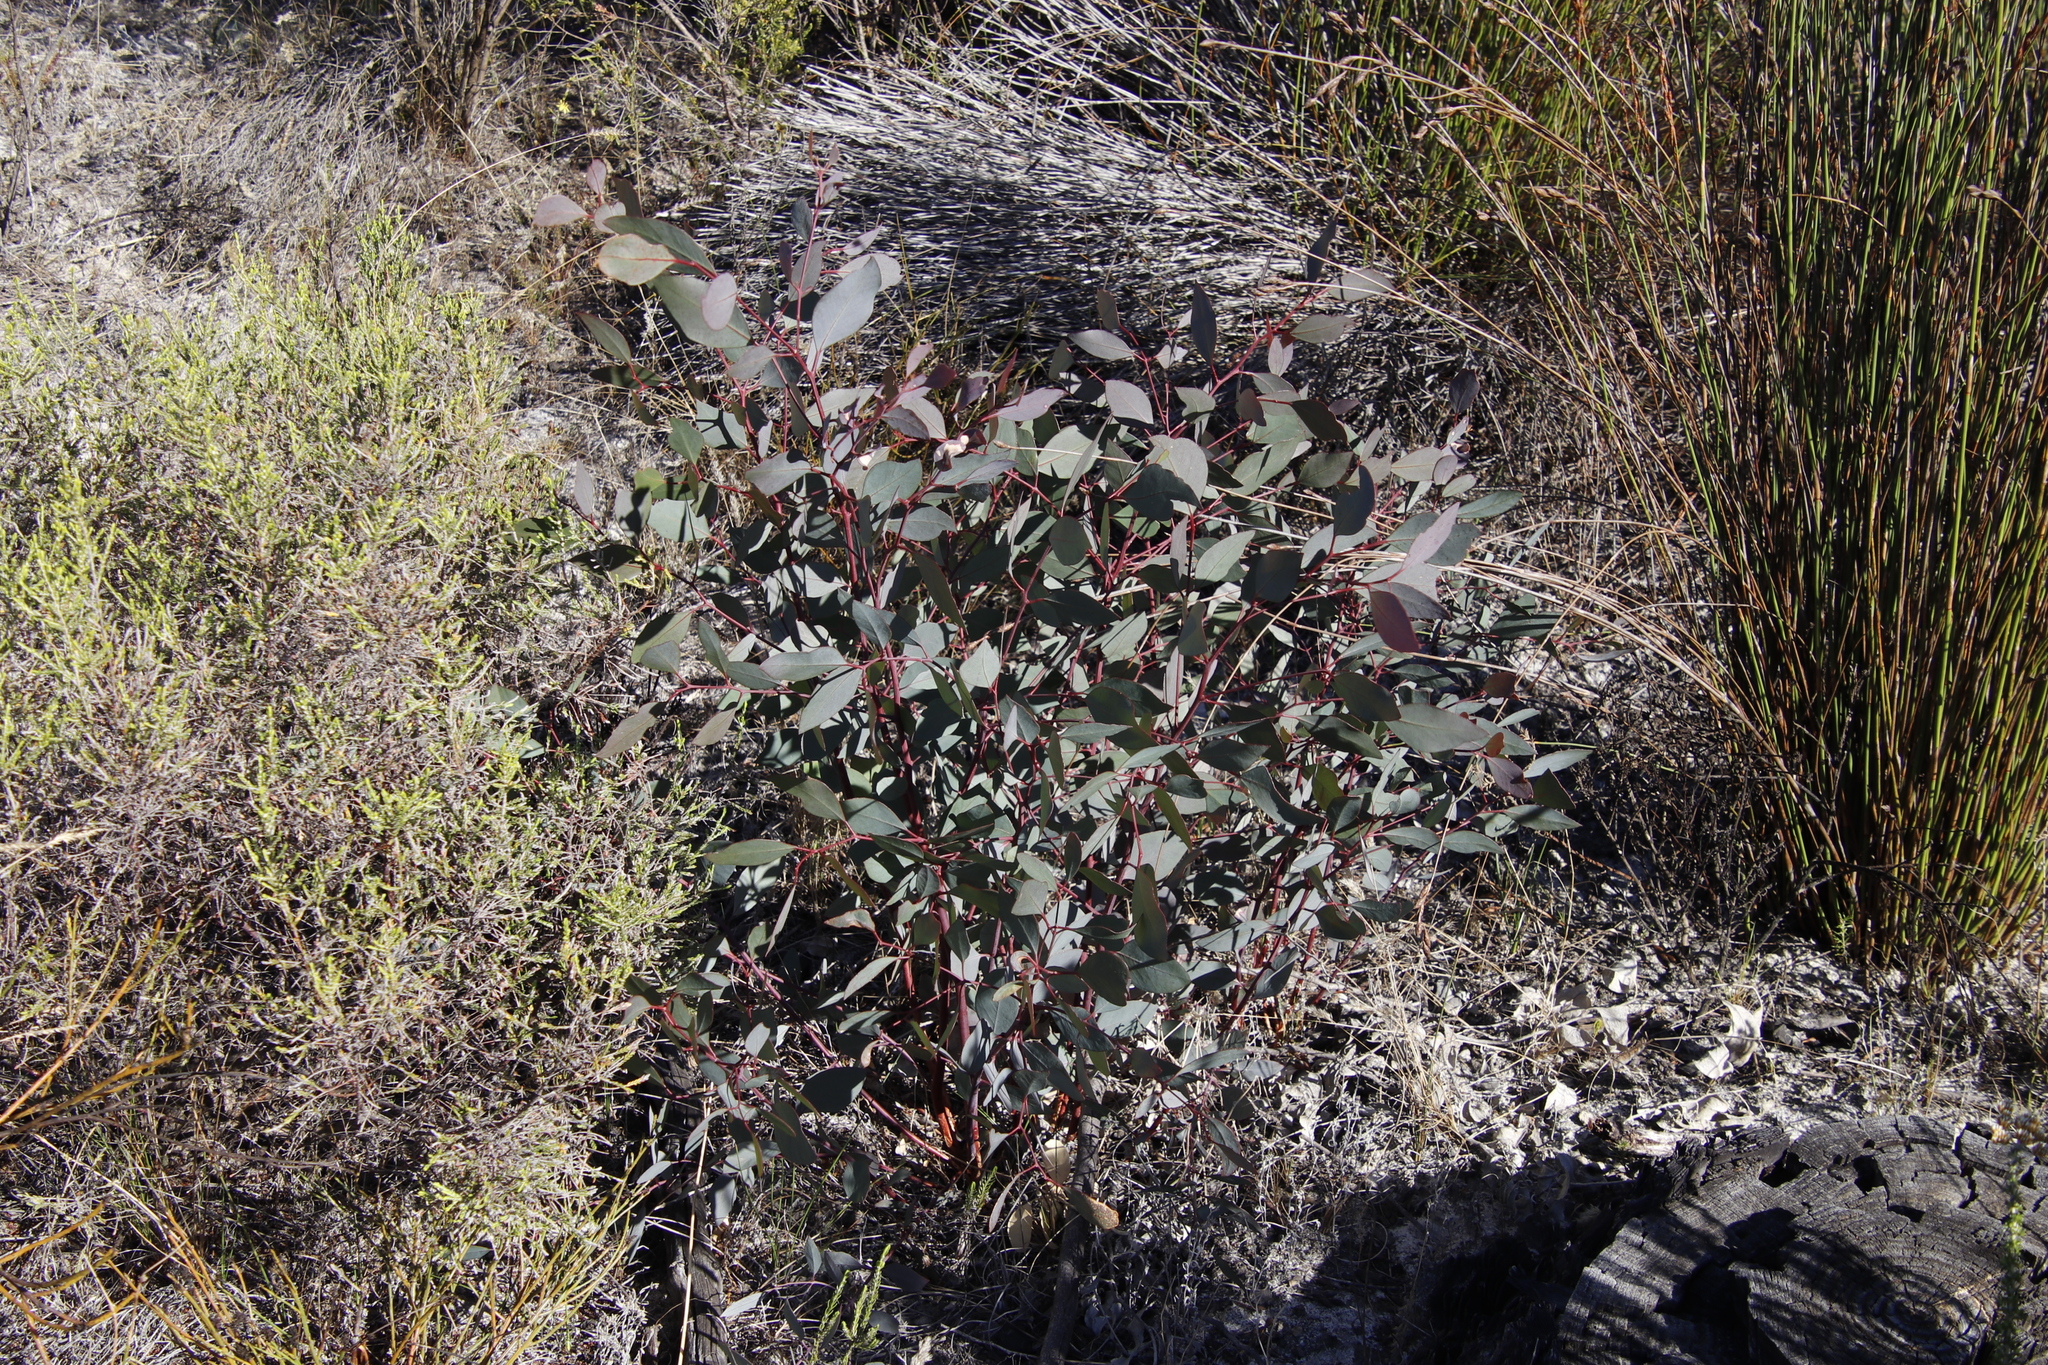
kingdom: Plantae
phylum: Tracheophyta
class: Magnoliopsida
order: Myrtales
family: Myrtaceae
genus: Eucalyptus
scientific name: Eucalyptus botryoides
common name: Bangalay
